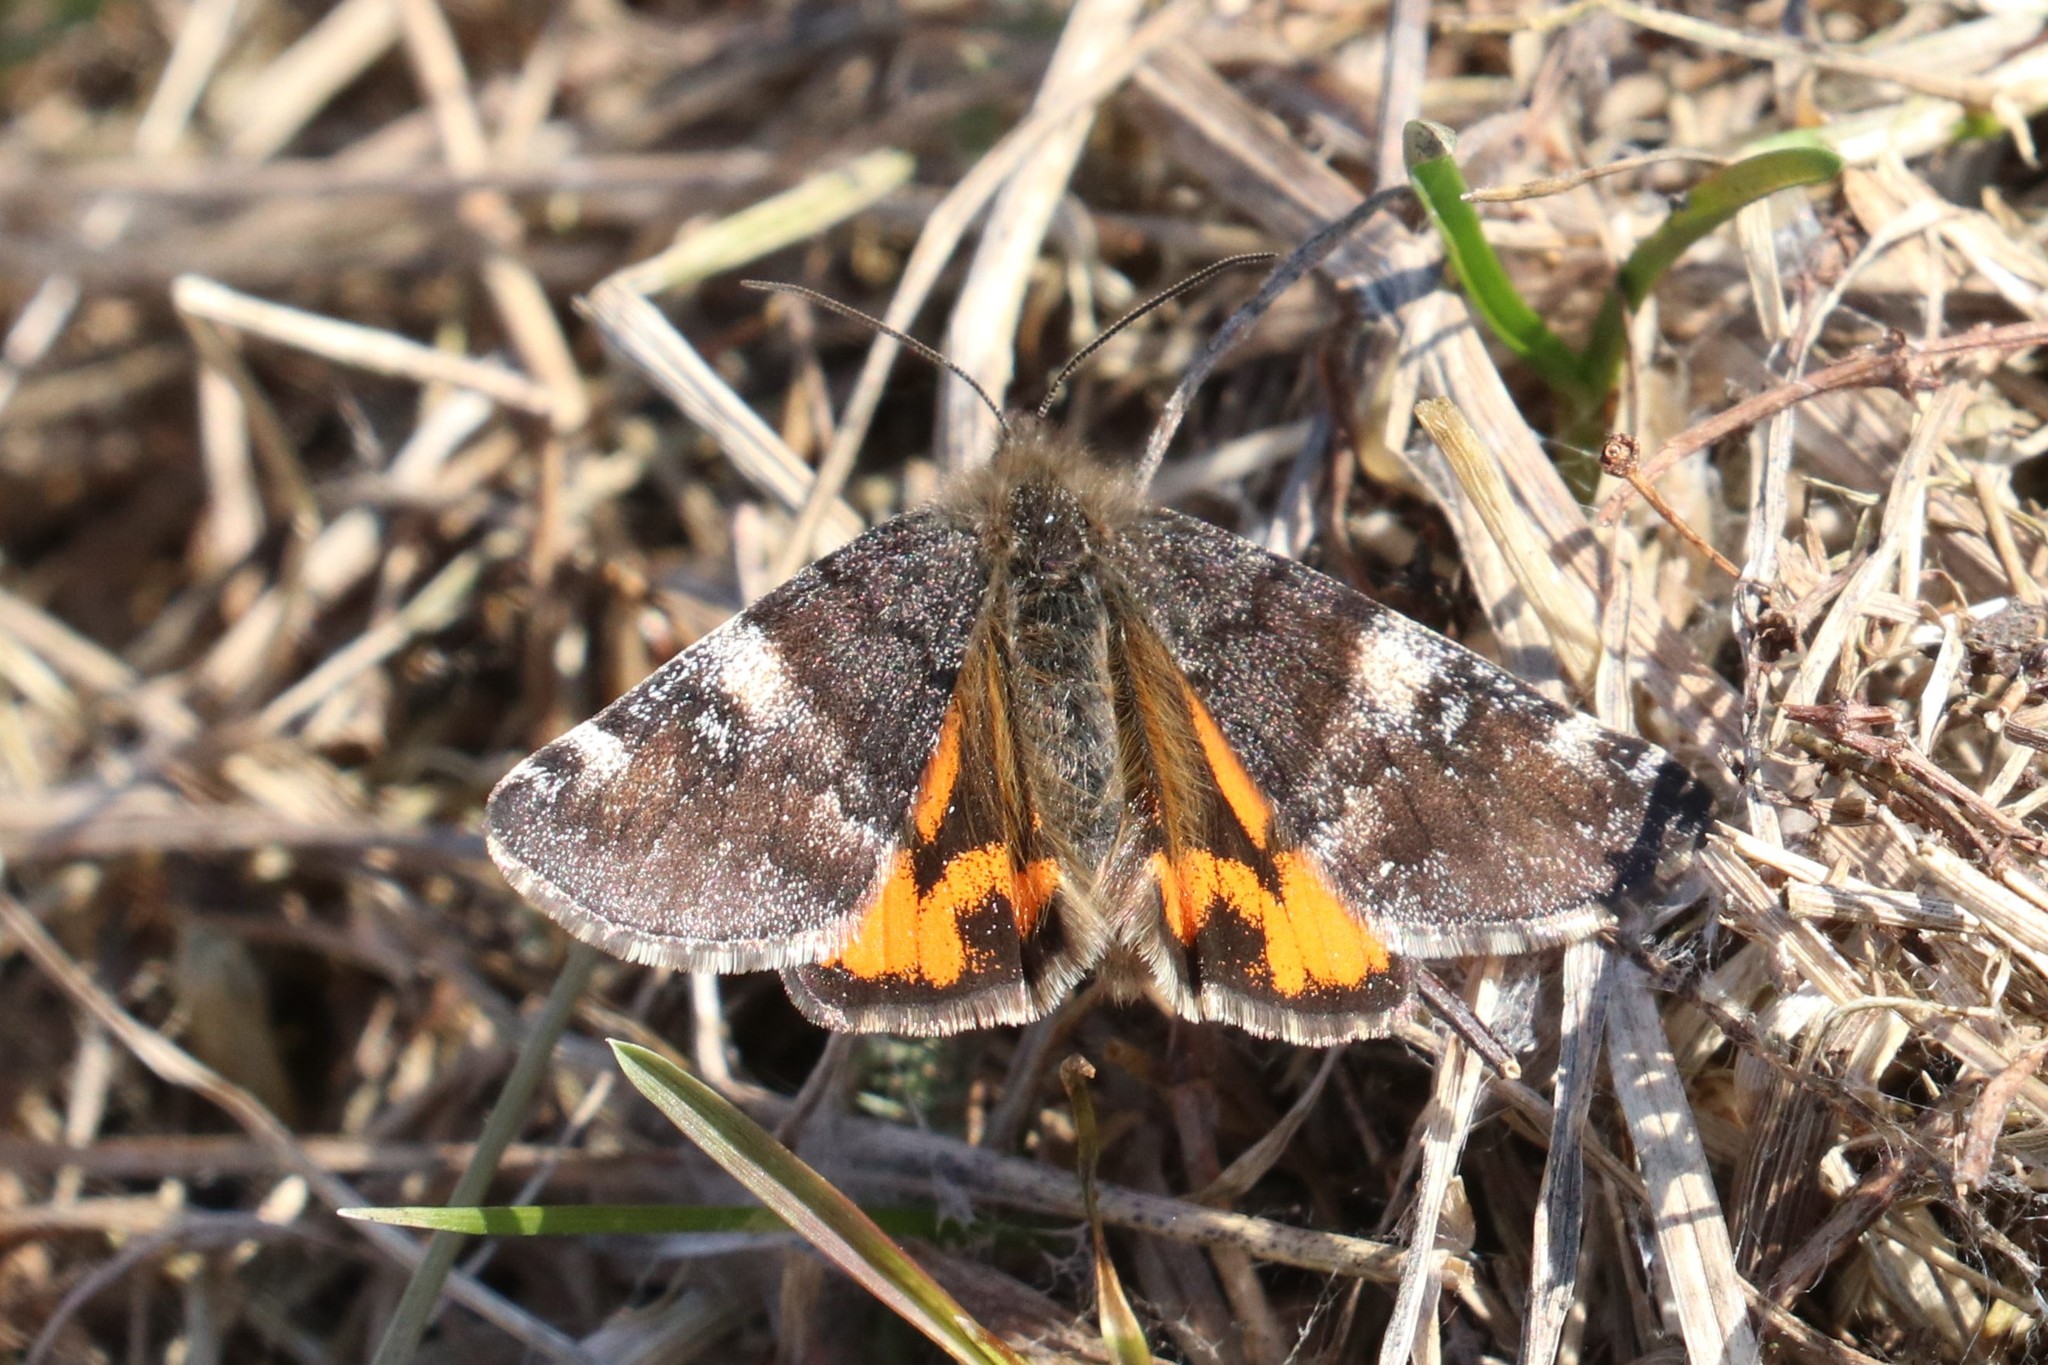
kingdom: Animalia
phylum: Arthropoda
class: Insecta
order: Lepidoptera
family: Geometridae
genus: Archiearis
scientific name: Archiearis parthenias
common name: Orange underwing
